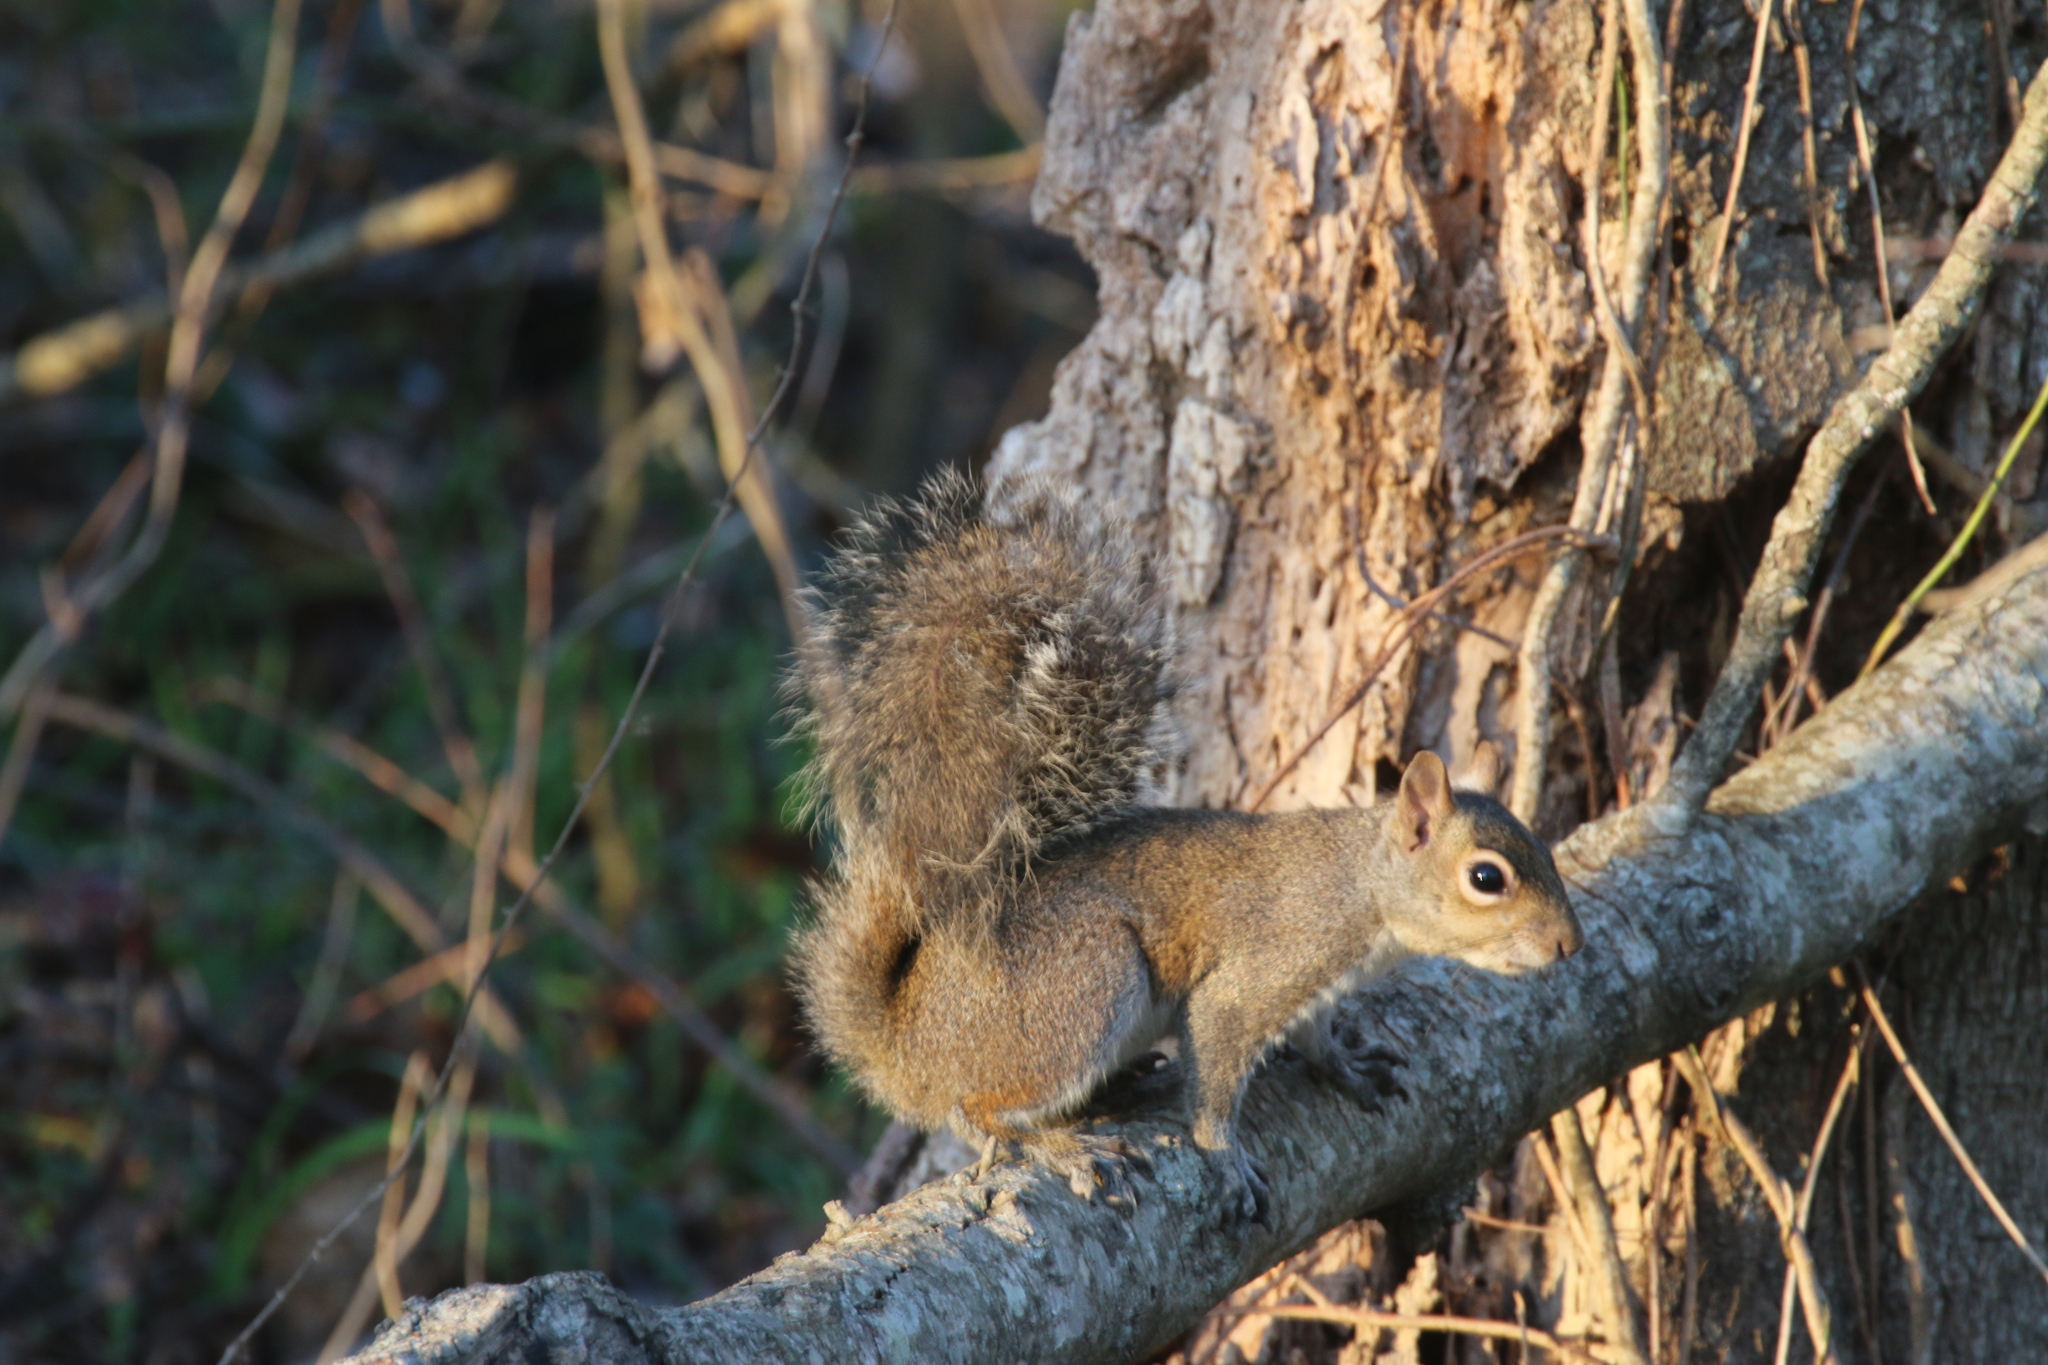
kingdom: Animalia
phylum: Chordata
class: Mammalia
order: Rodentia
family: Sciuridae
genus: Sciurus
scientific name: Sciurus carolinensis
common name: Eastern gray squirrel
